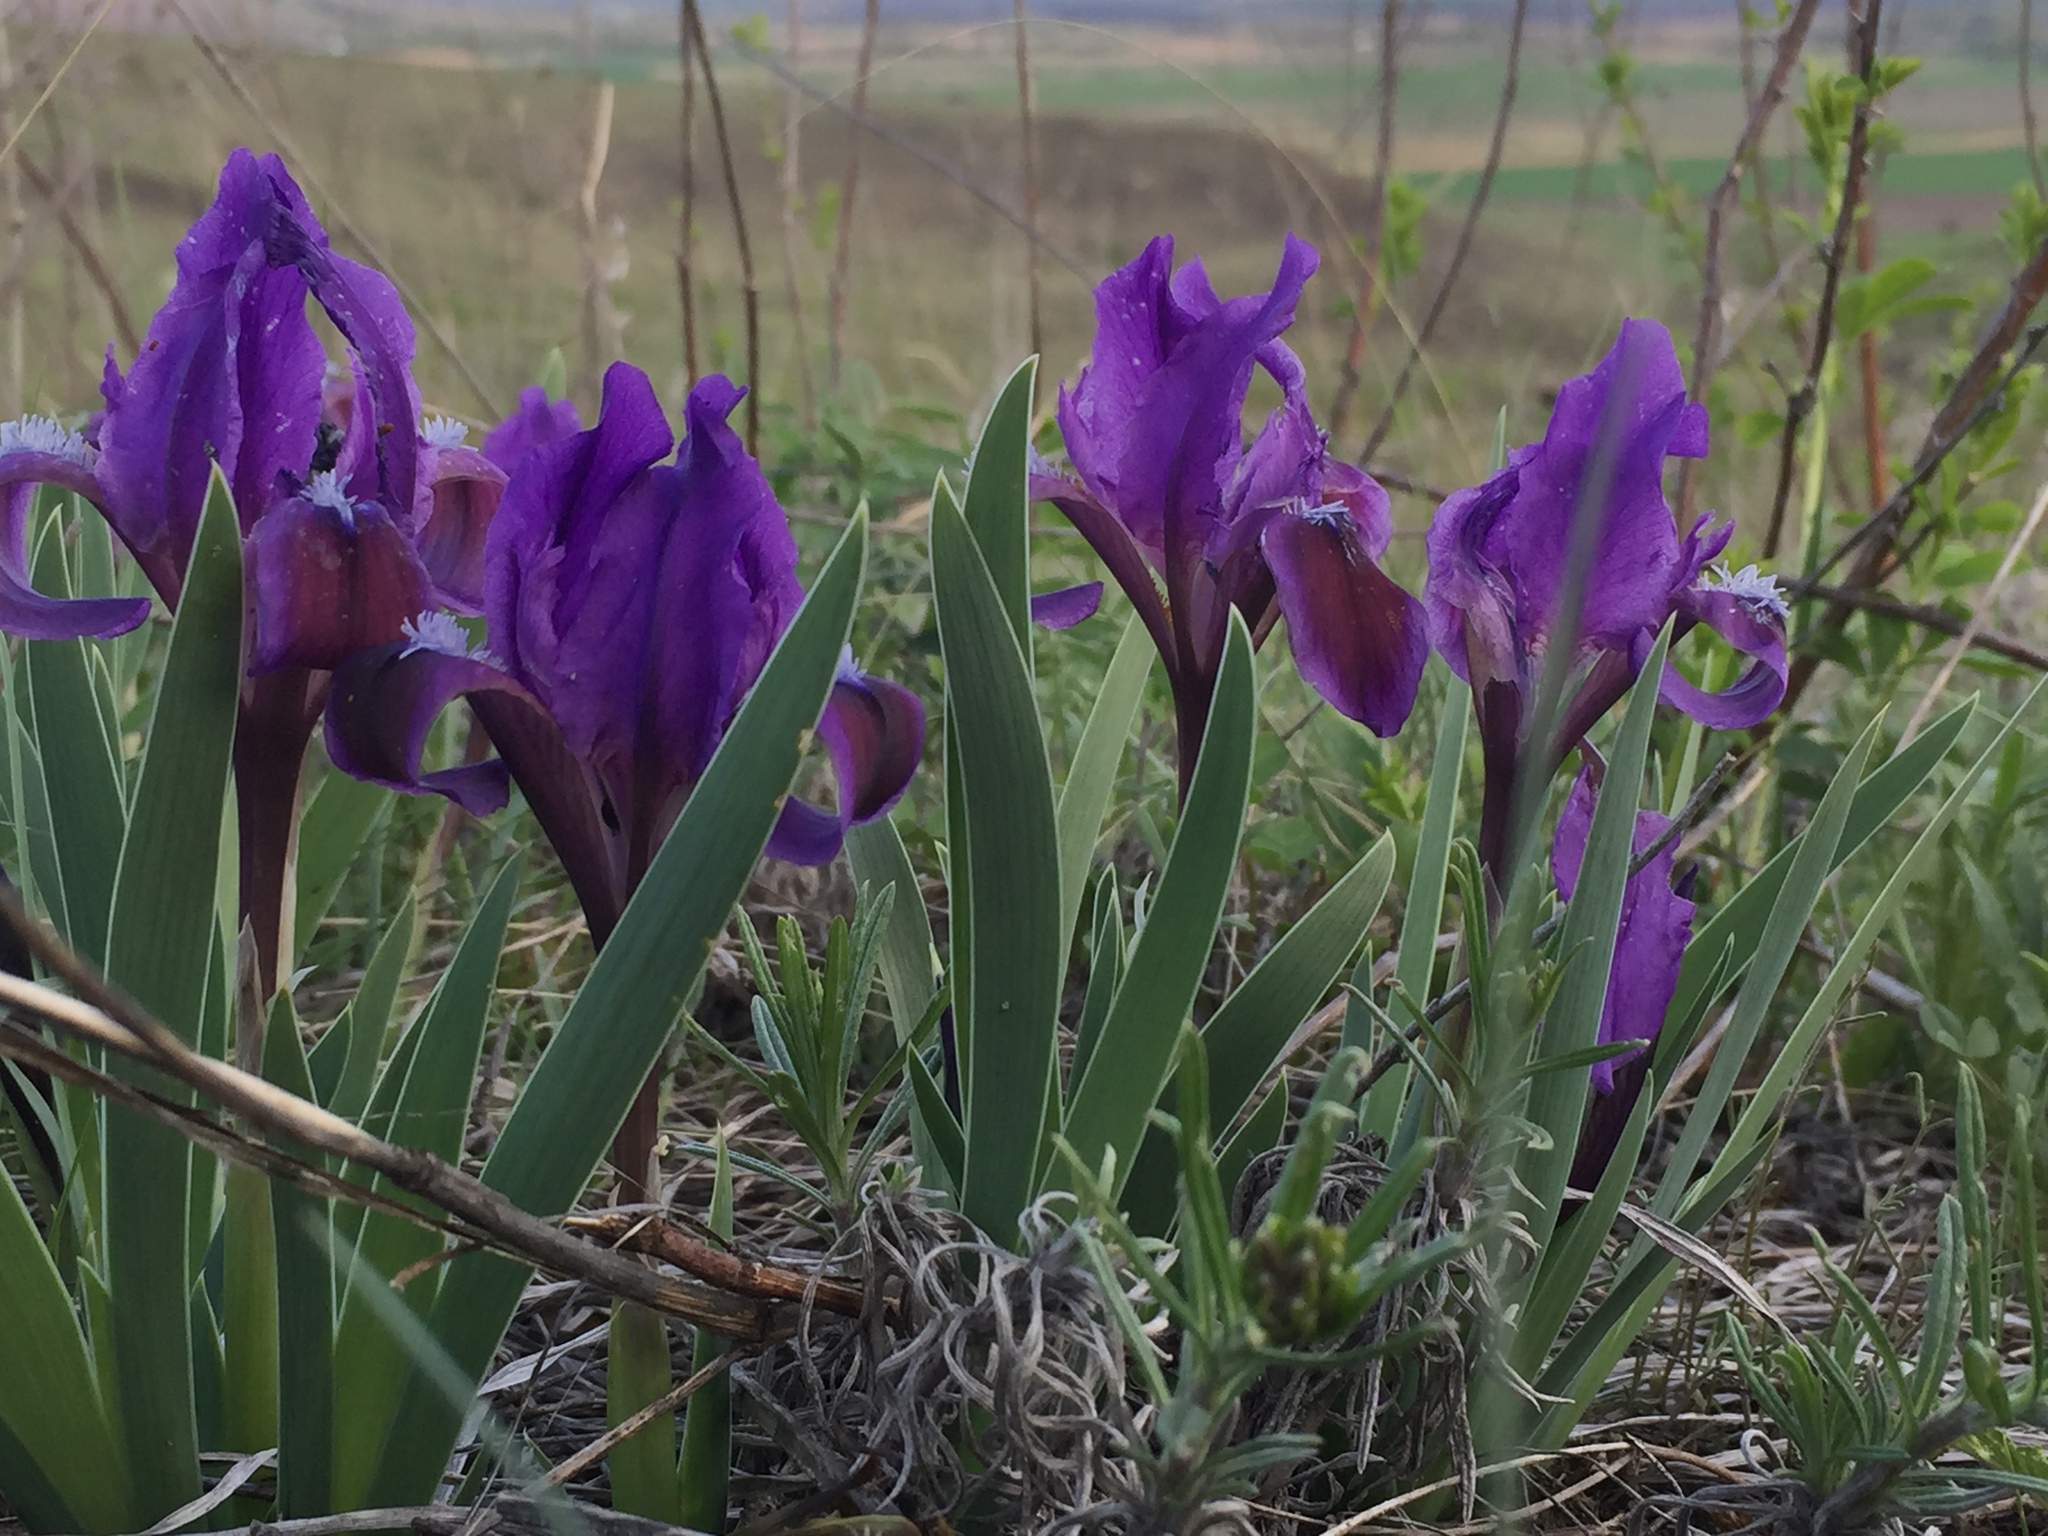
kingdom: Plantae
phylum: Tracheophyta
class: Liliopsida
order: Asparagales
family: Iridaceae
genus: Iris
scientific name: Iris pumila
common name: Dwarf iris
